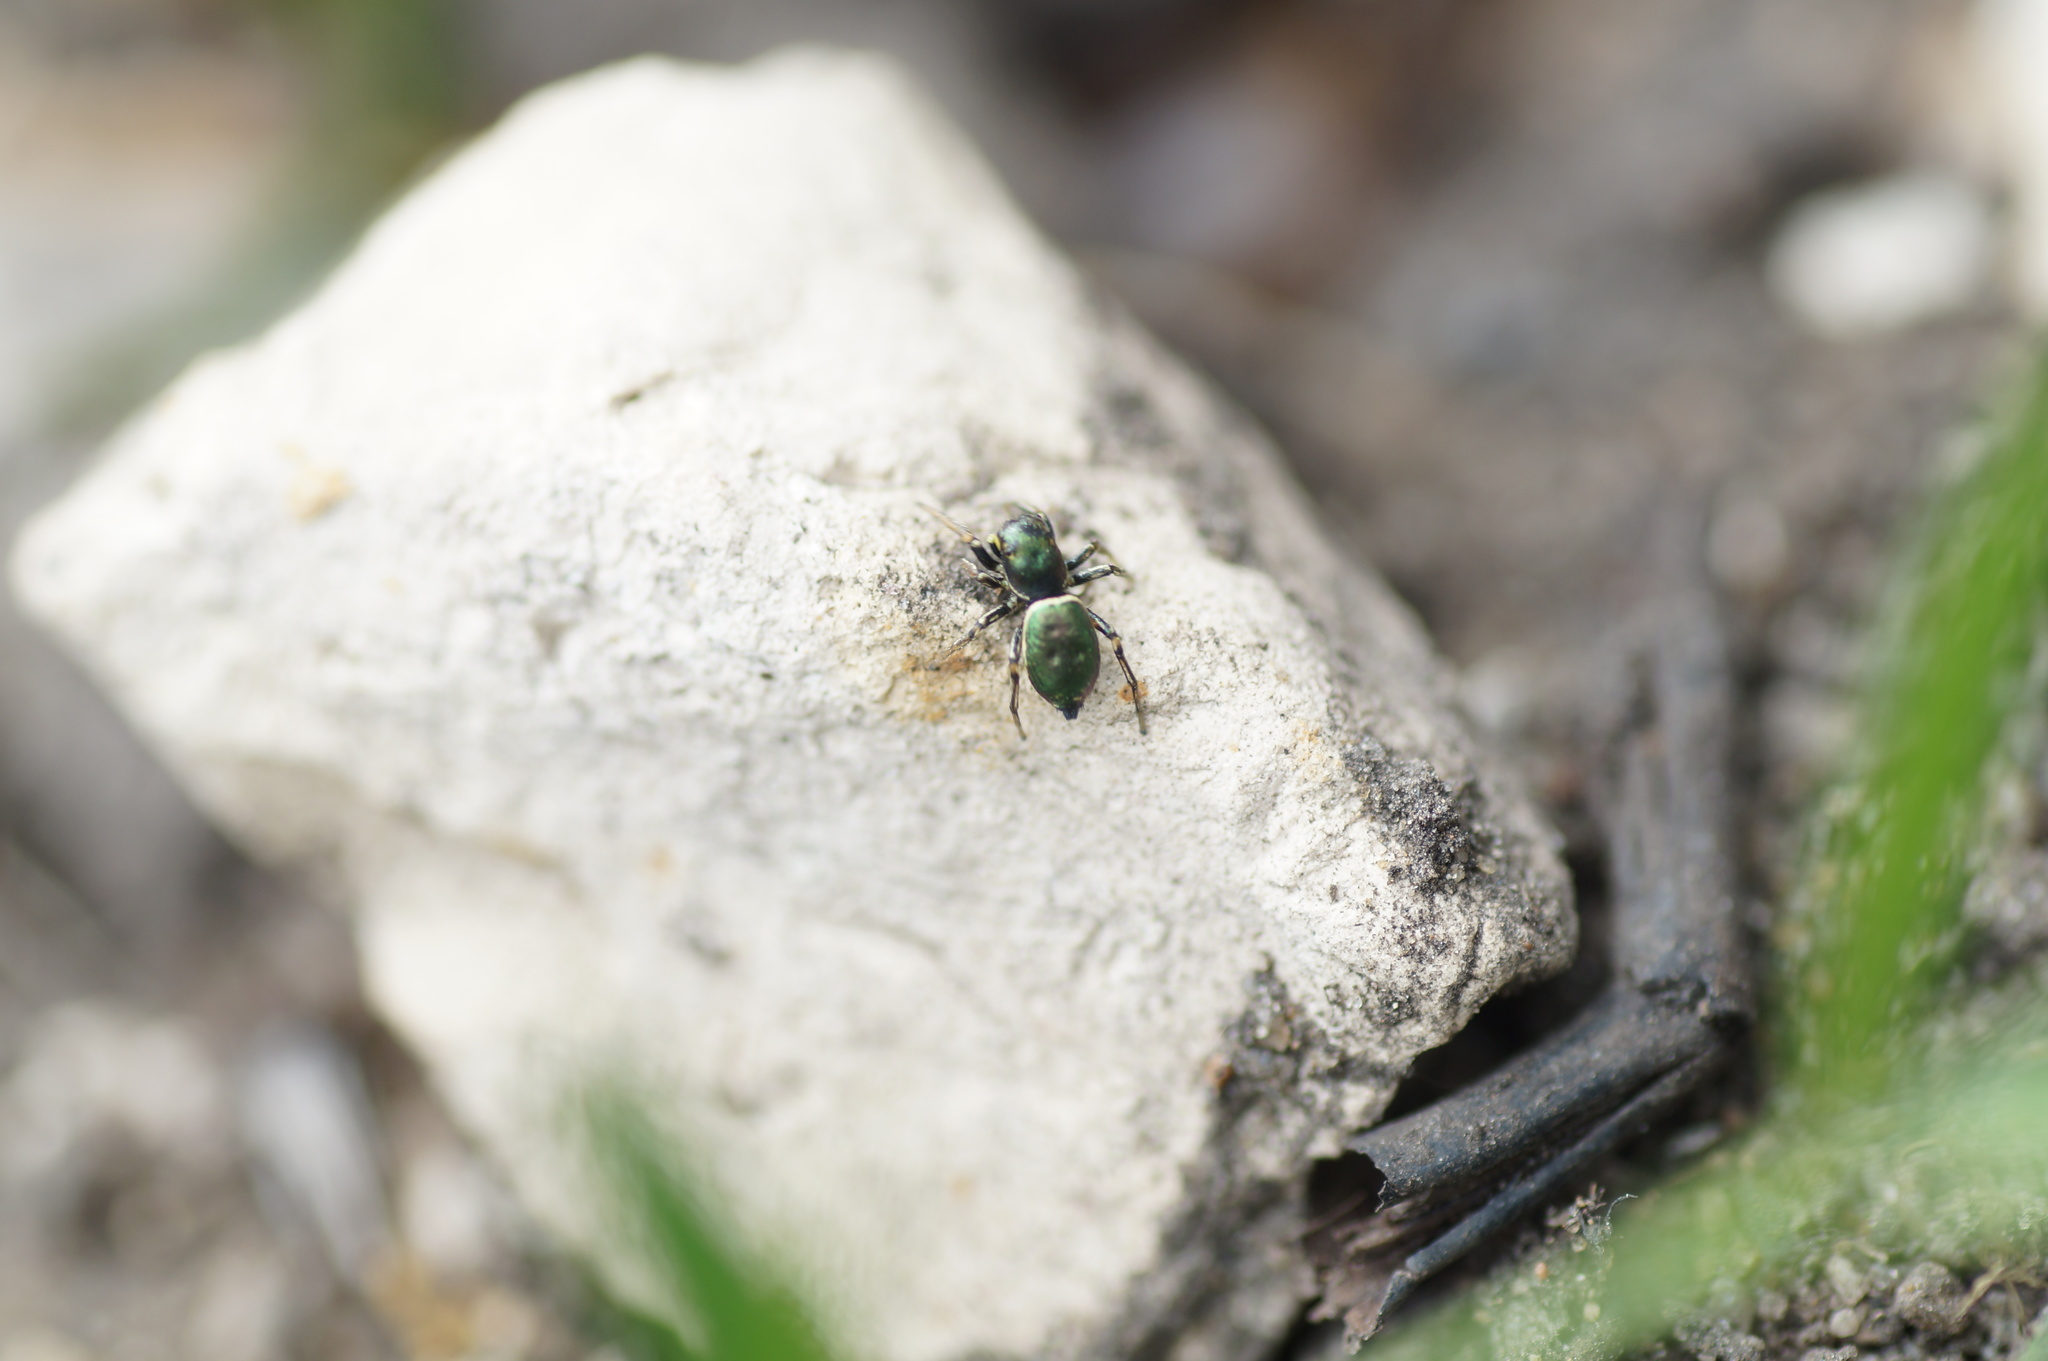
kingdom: Animalia
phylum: Arthropoda
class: Arachnida
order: Araneae
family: Salticidae
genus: Heliophanus
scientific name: Heliophanus auratus
